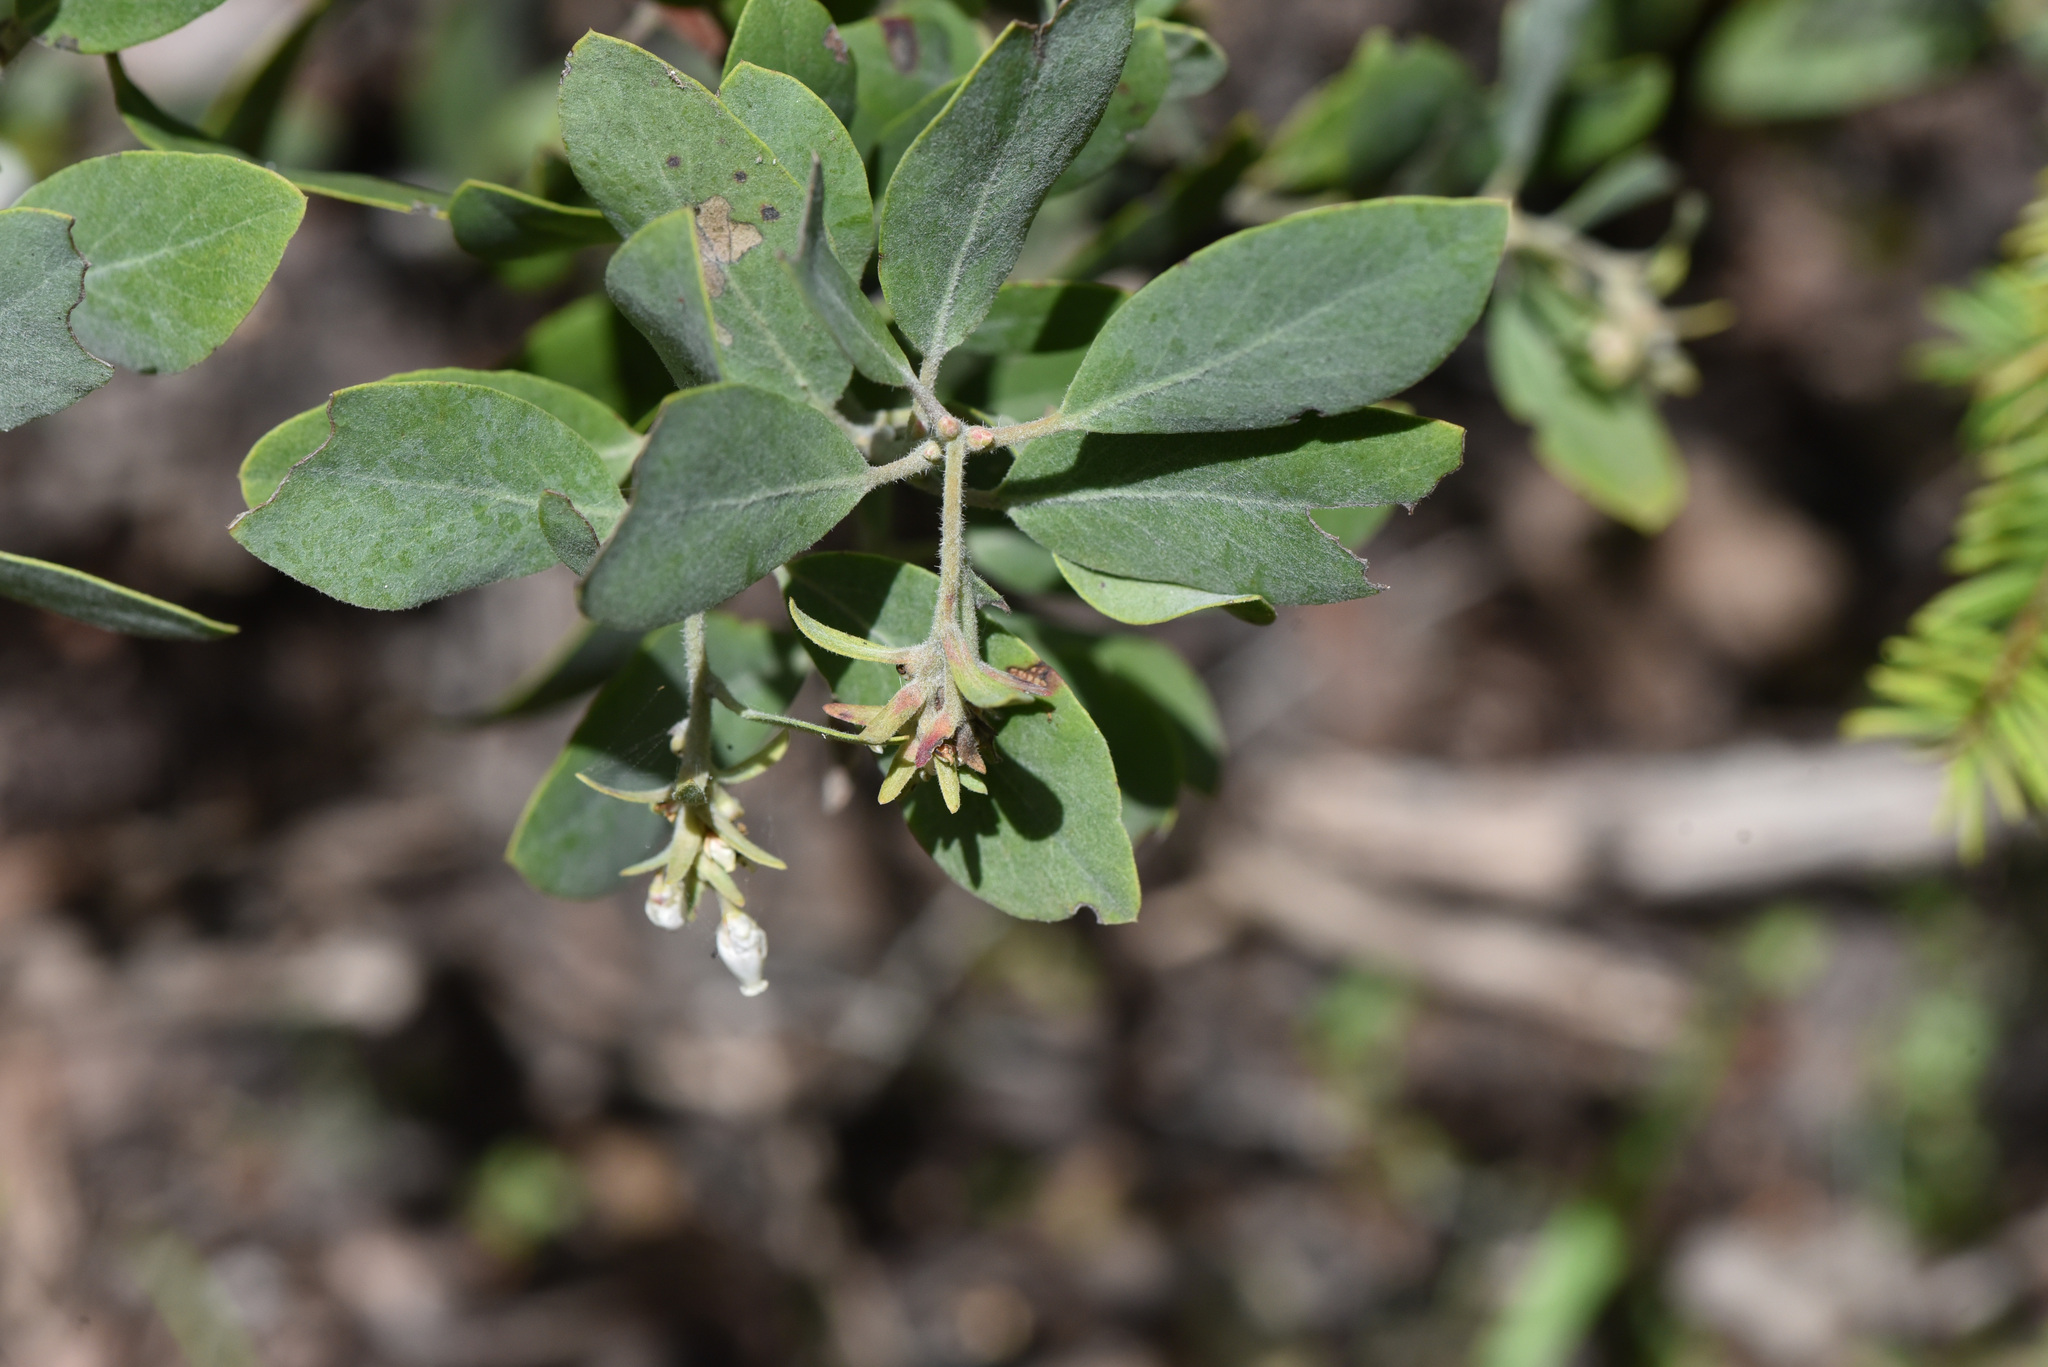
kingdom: Plantae
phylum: Tracheophyta
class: Magnoliopsida
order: Ericales
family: Ericaceae
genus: Arctostaphylos
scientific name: Arctostaphylos columbiana
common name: Bristly bearberry
